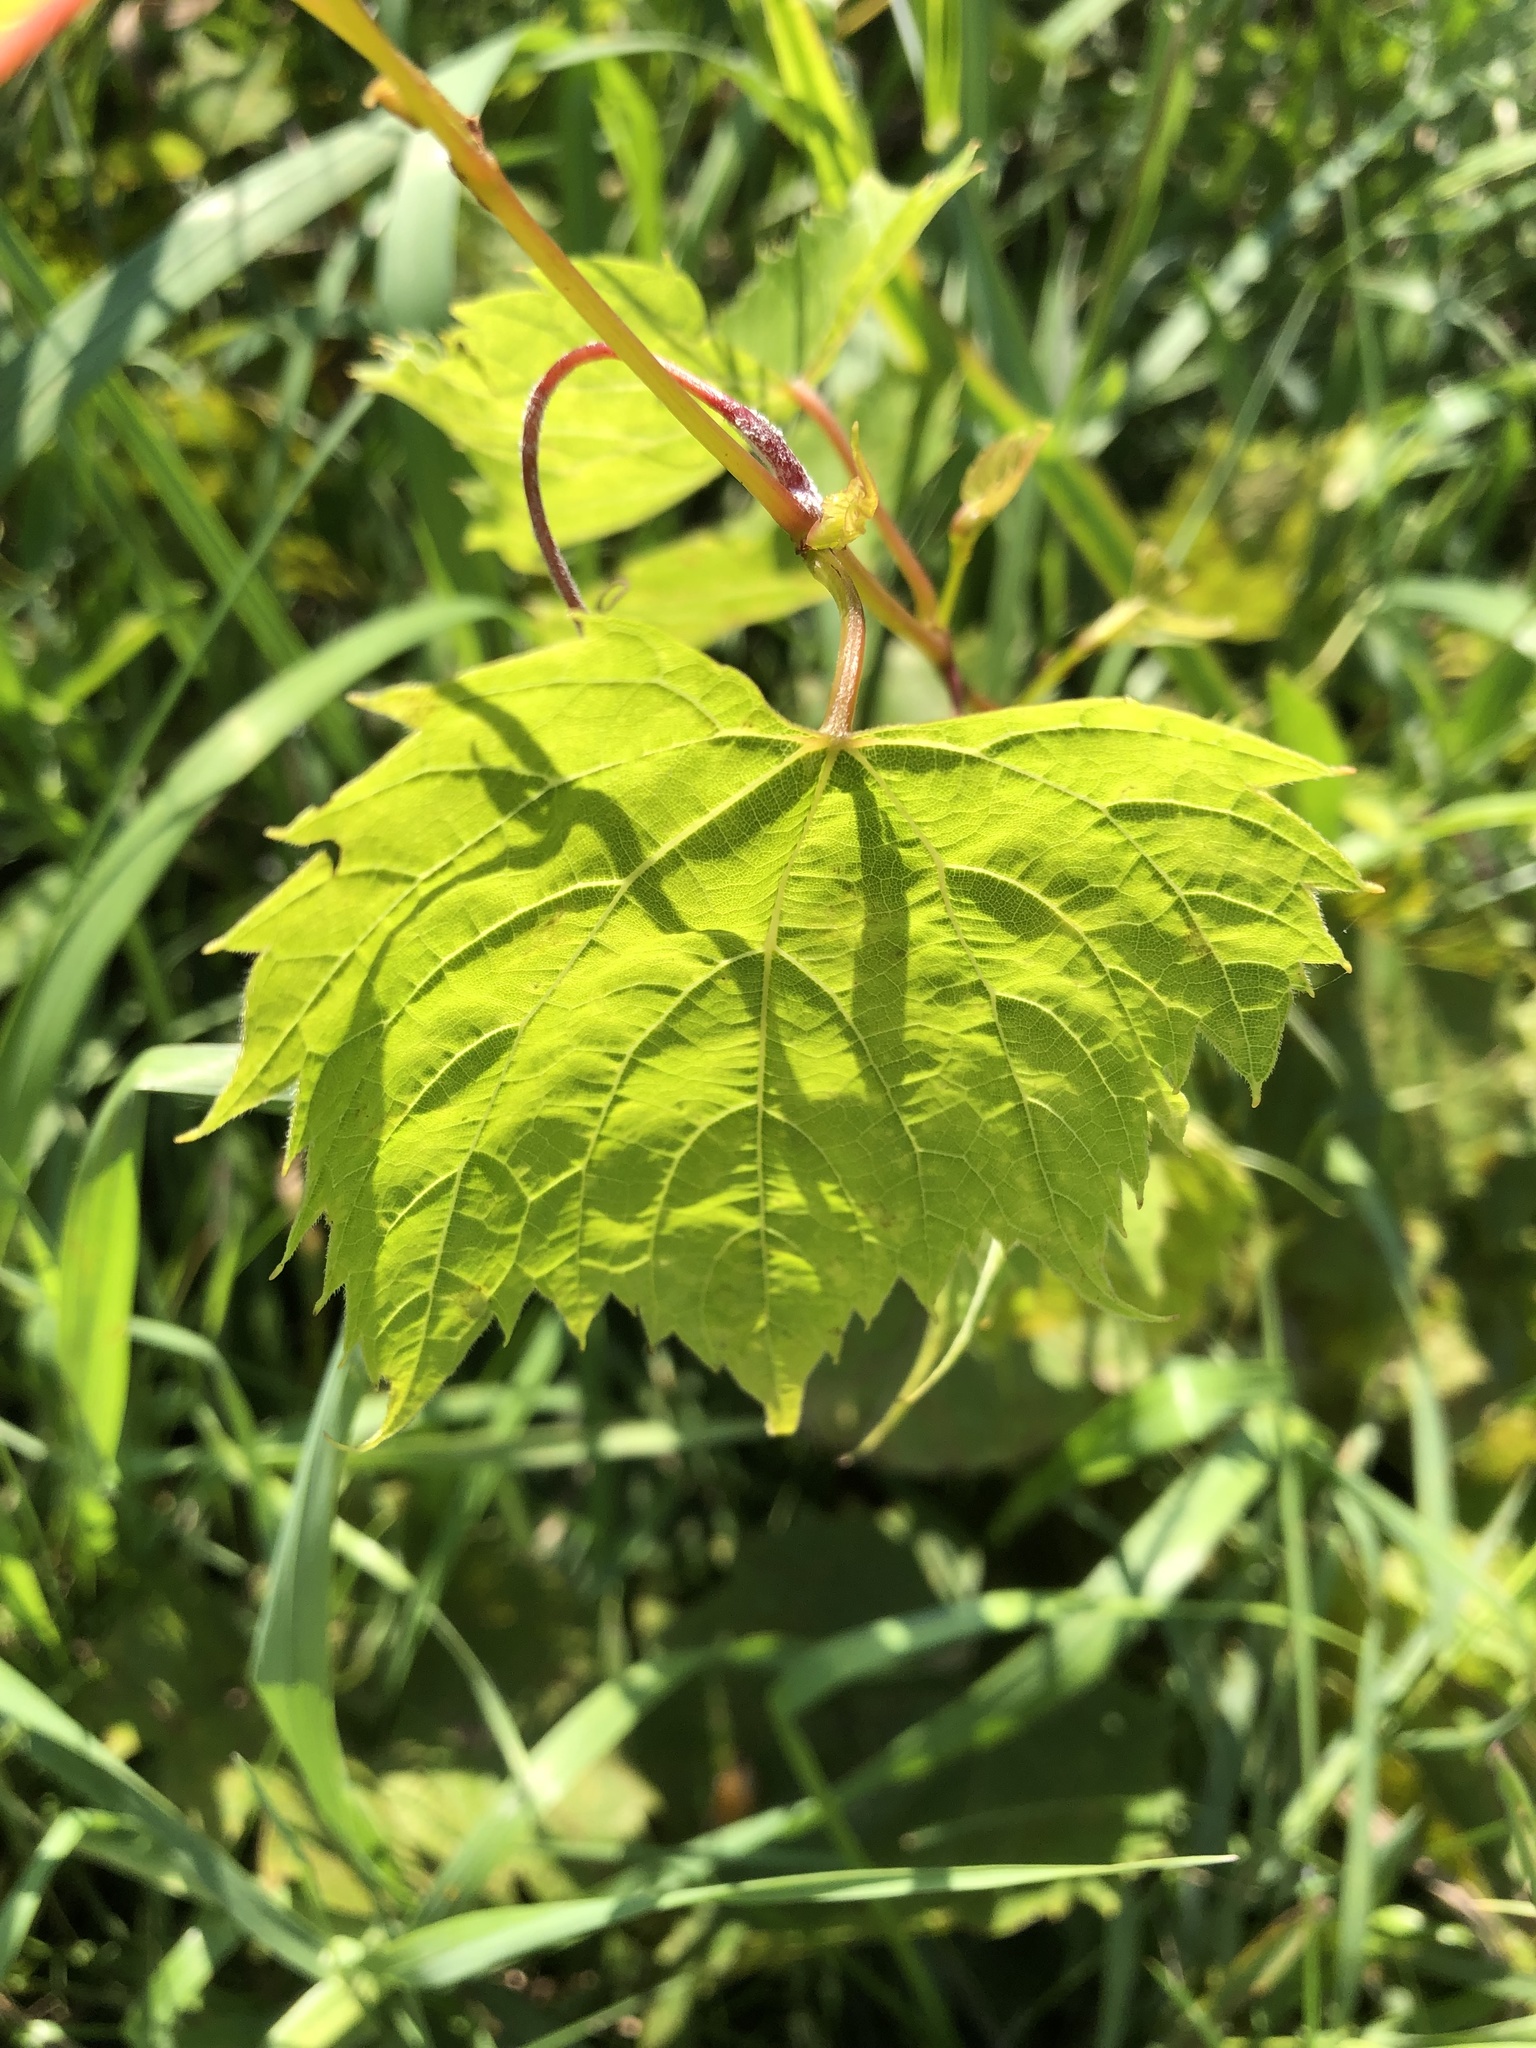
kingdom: Plantae
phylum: Tracheophyta
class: Magnoliopsida
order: Vitales
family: Vitaceae
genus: Vitis
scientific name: Vitis riparia
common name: Frost grape
